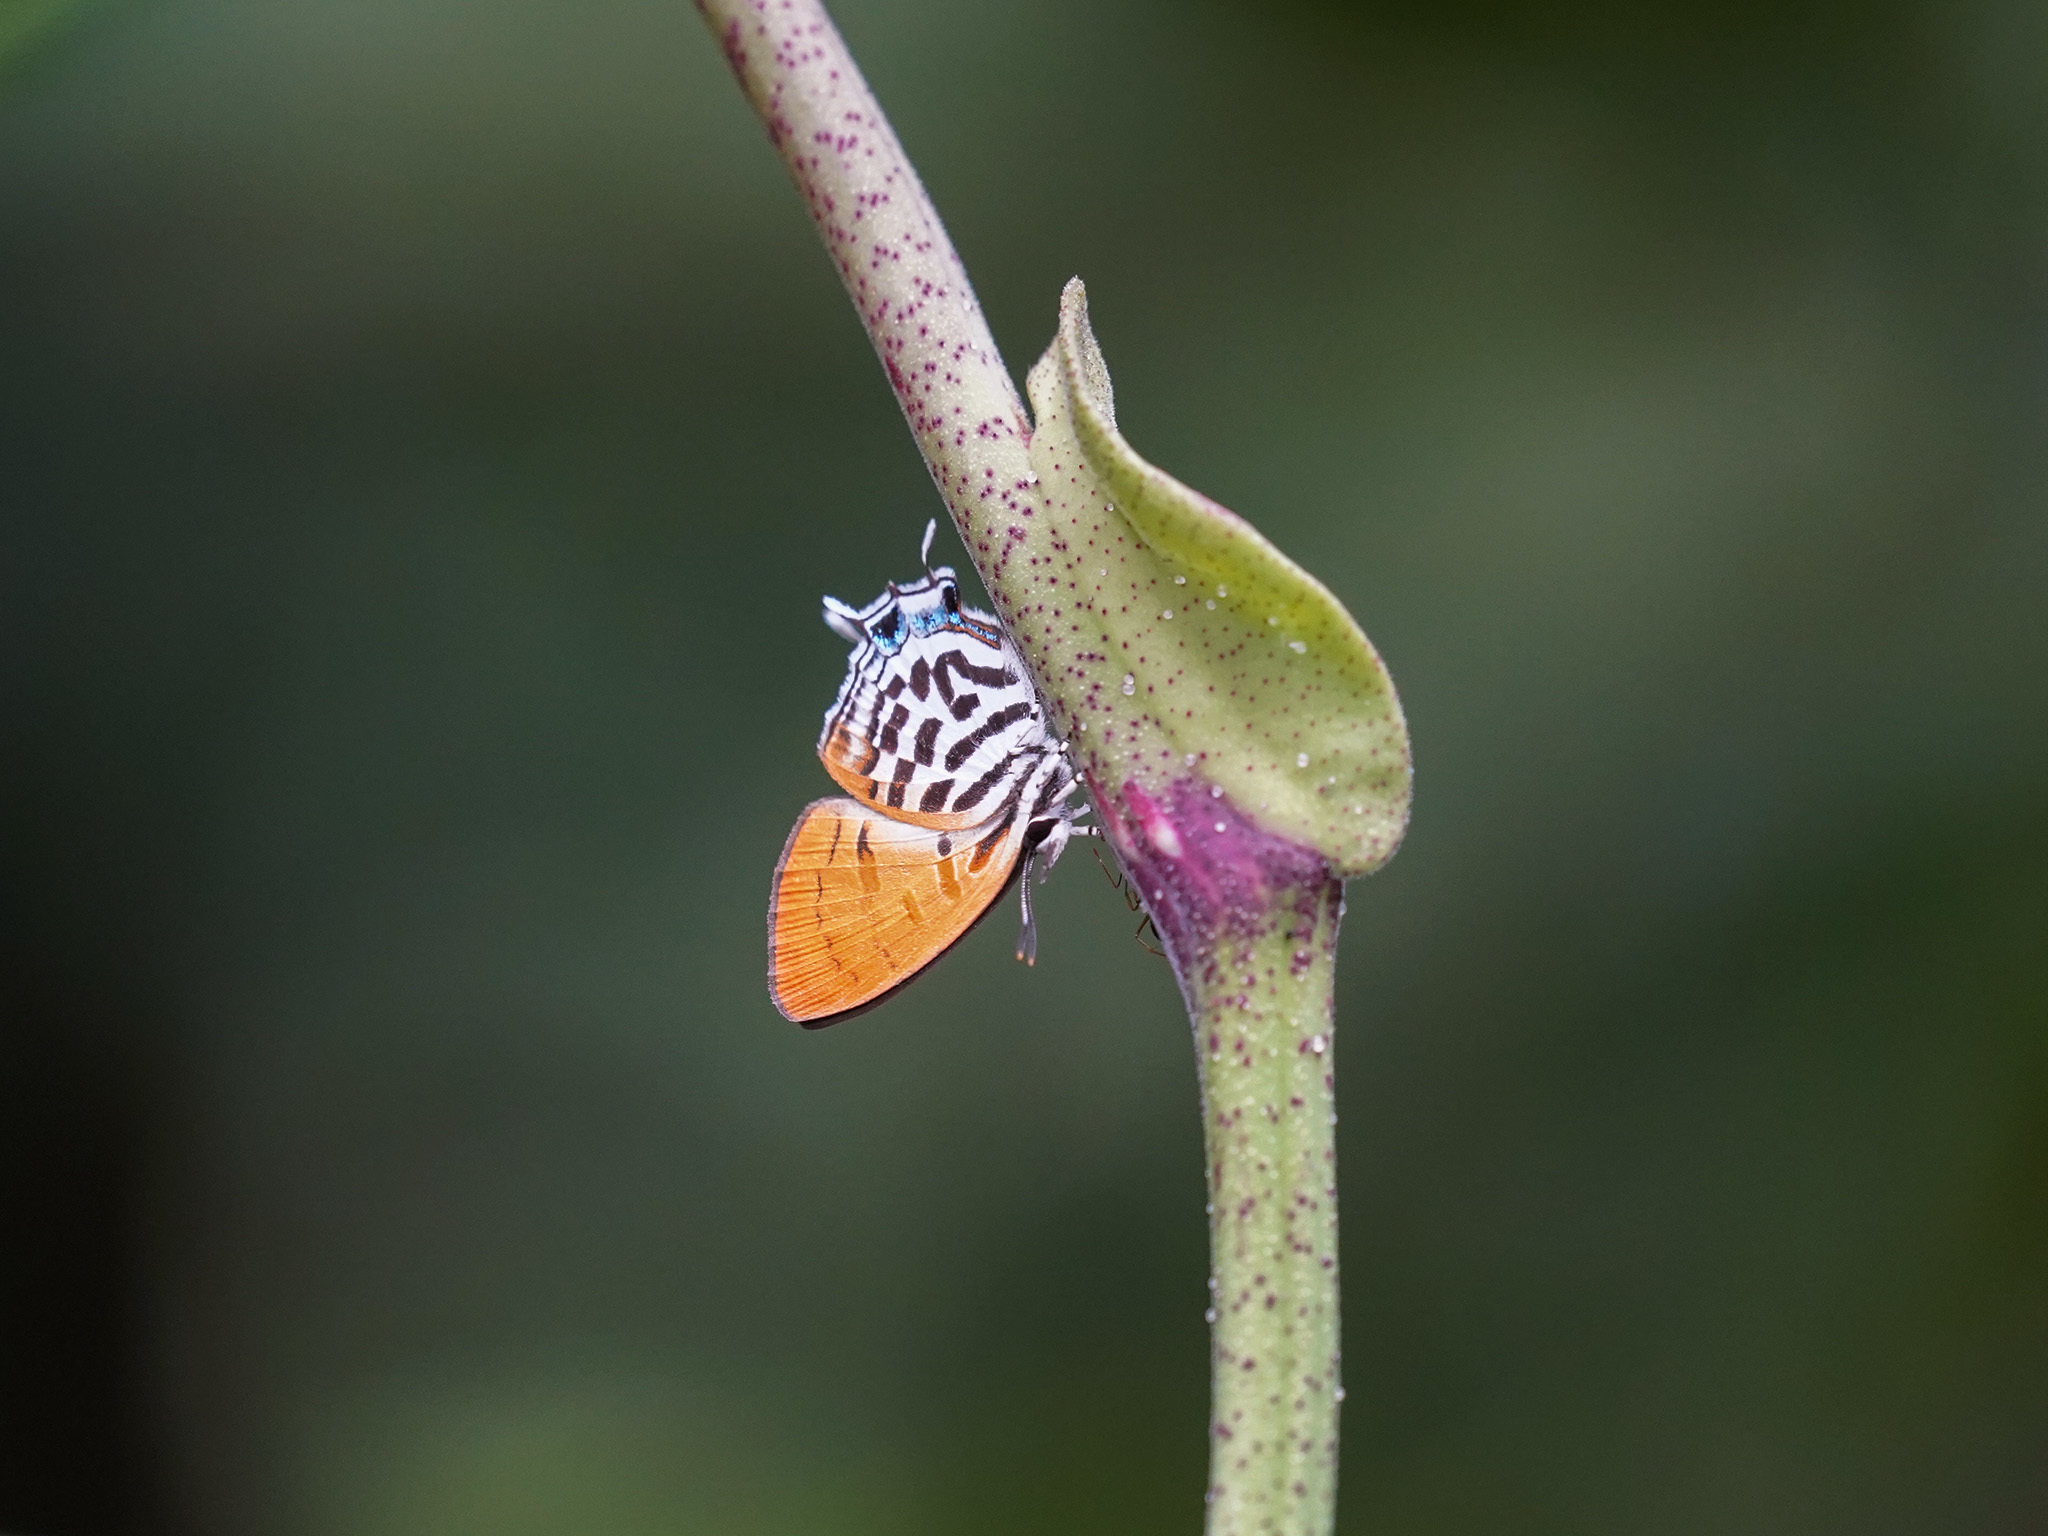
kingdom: Animalia
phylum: Arthropoda
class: Insecta
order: Lepidoptera
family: Lycaenidae
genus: Drupadia
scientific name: Drupadia ravindra
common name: Common posy
